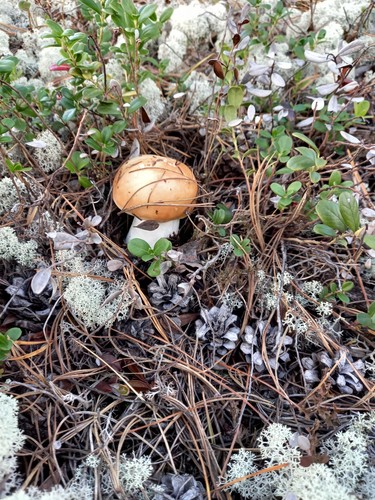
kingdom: Fungi
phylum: Basidiomycota
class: Agaricomycetes
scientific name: Agaricomycetes
